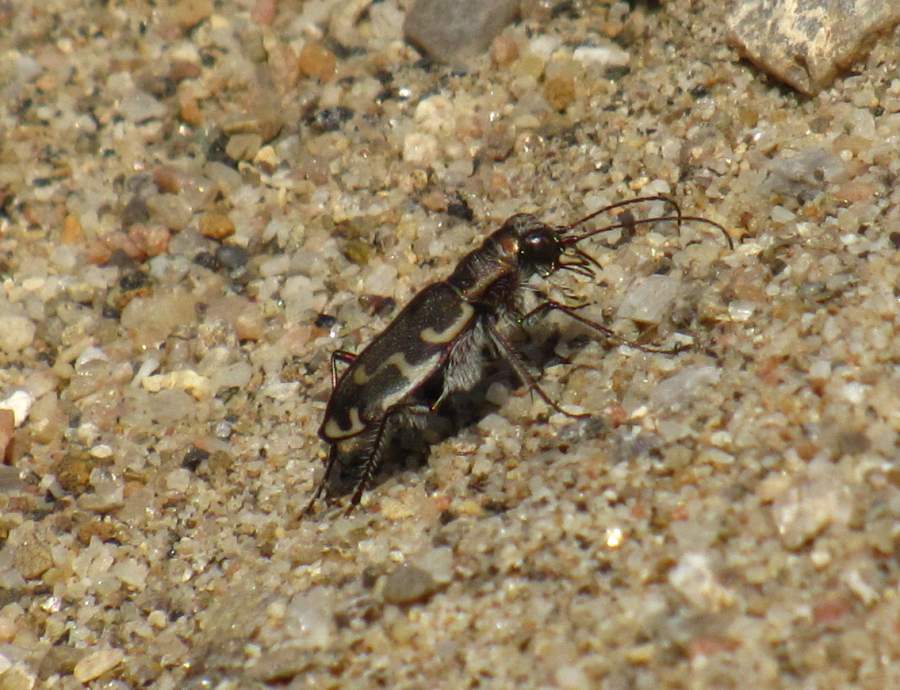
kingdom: Animalia
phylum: Arthropoda
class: Insecta
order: Coleoptera
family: Carabidae
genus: Cicindela
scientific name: Cicindela repanda
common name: Bronzed tiger beetle
